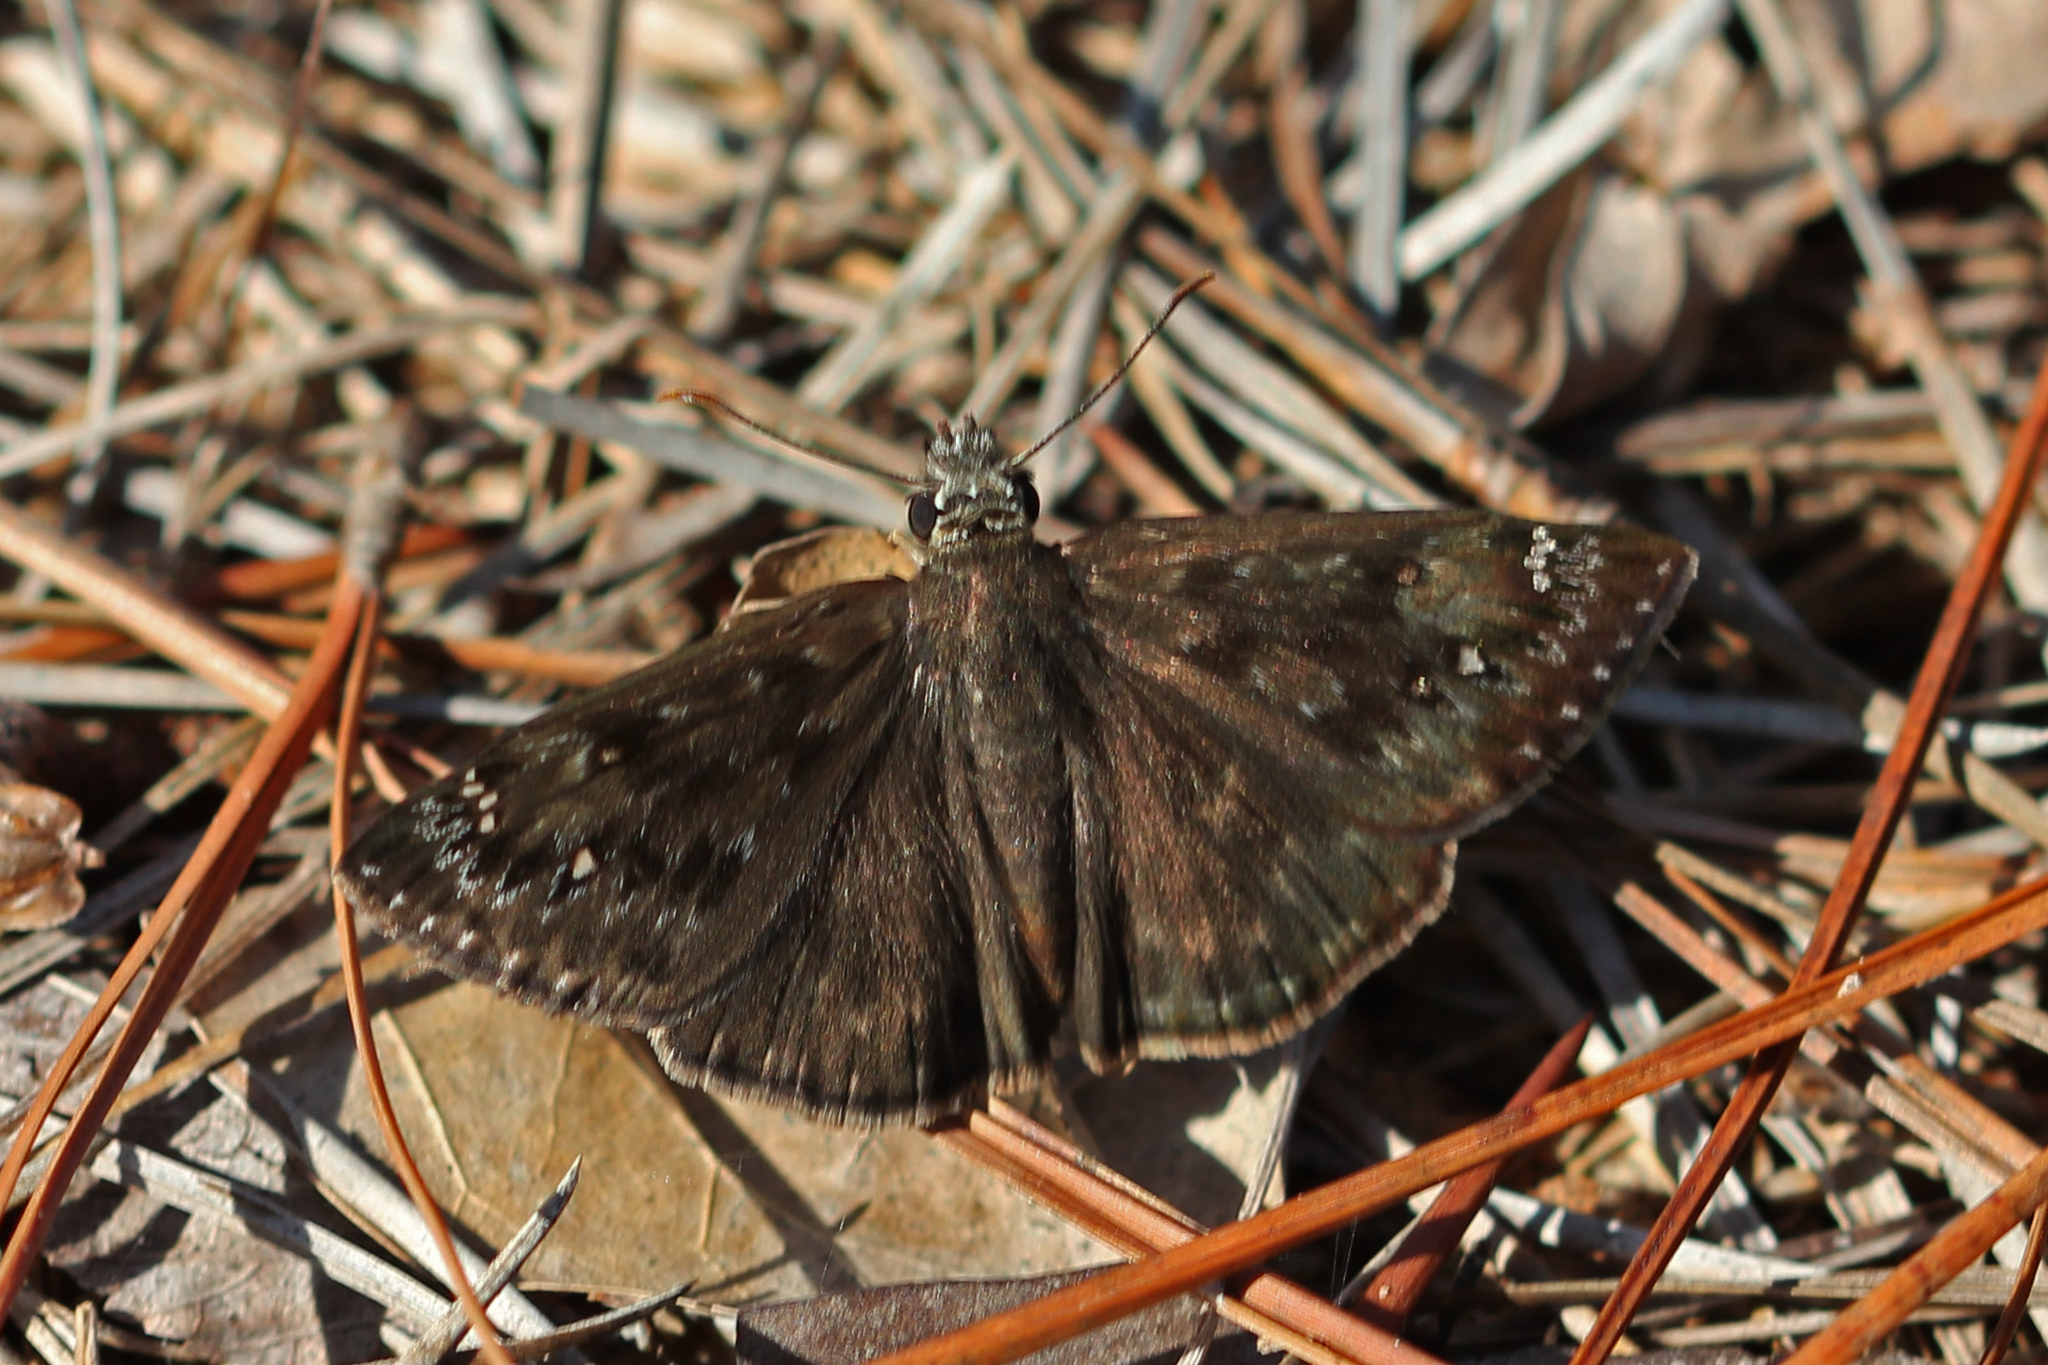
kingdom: Animalia
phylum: Arthropoda
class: Insecta
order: Lepidoptera
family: Hesperiidae
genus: Erynnis
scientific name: Erynnis horatius
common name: Horace's duskywing
